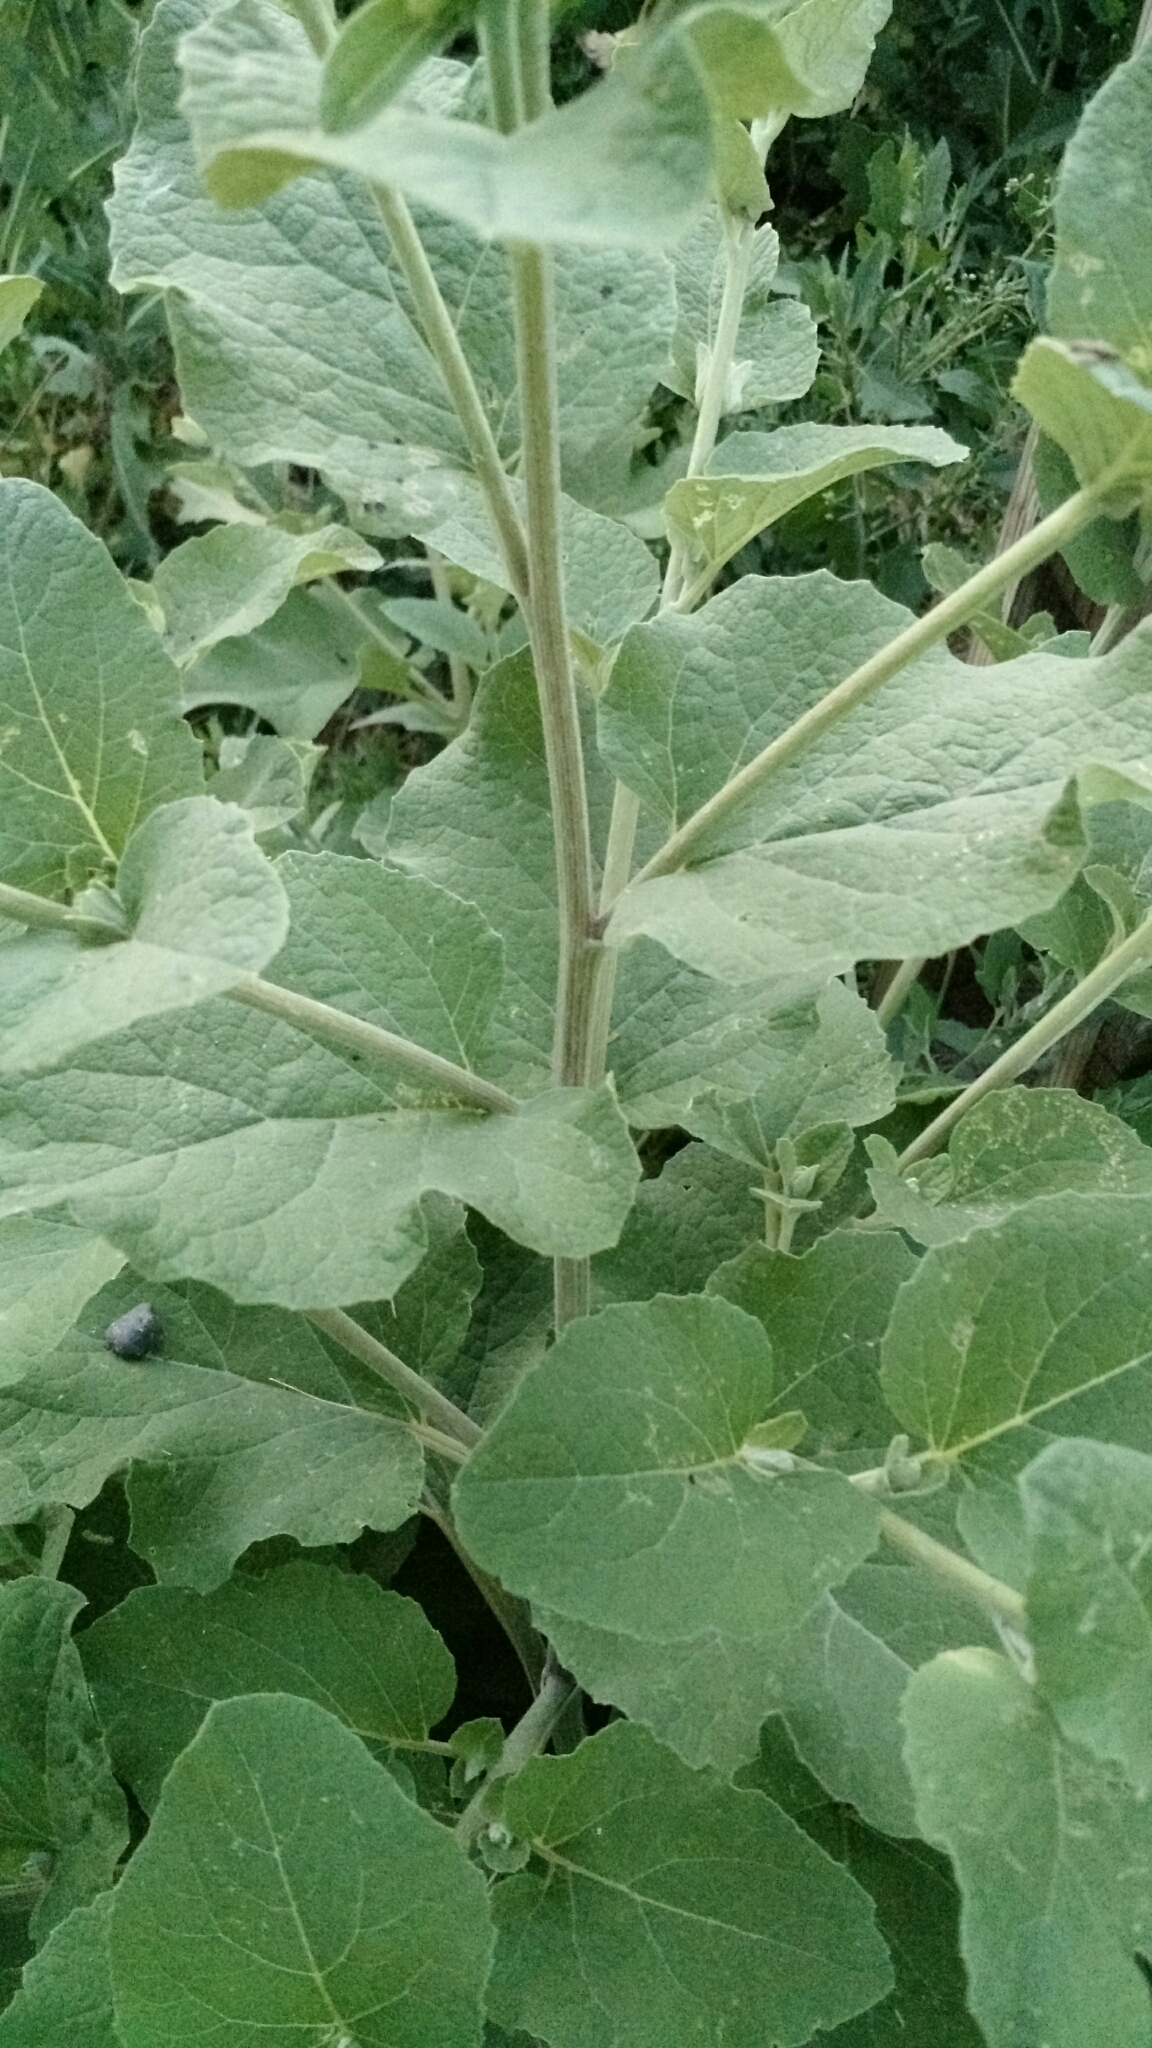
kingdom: Plantae
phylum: Tracheophyta
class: Magnoliopsida
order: Asterales
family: Asteraceae
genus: Arctium
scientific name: Arctium minus
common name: Lesser burdock
